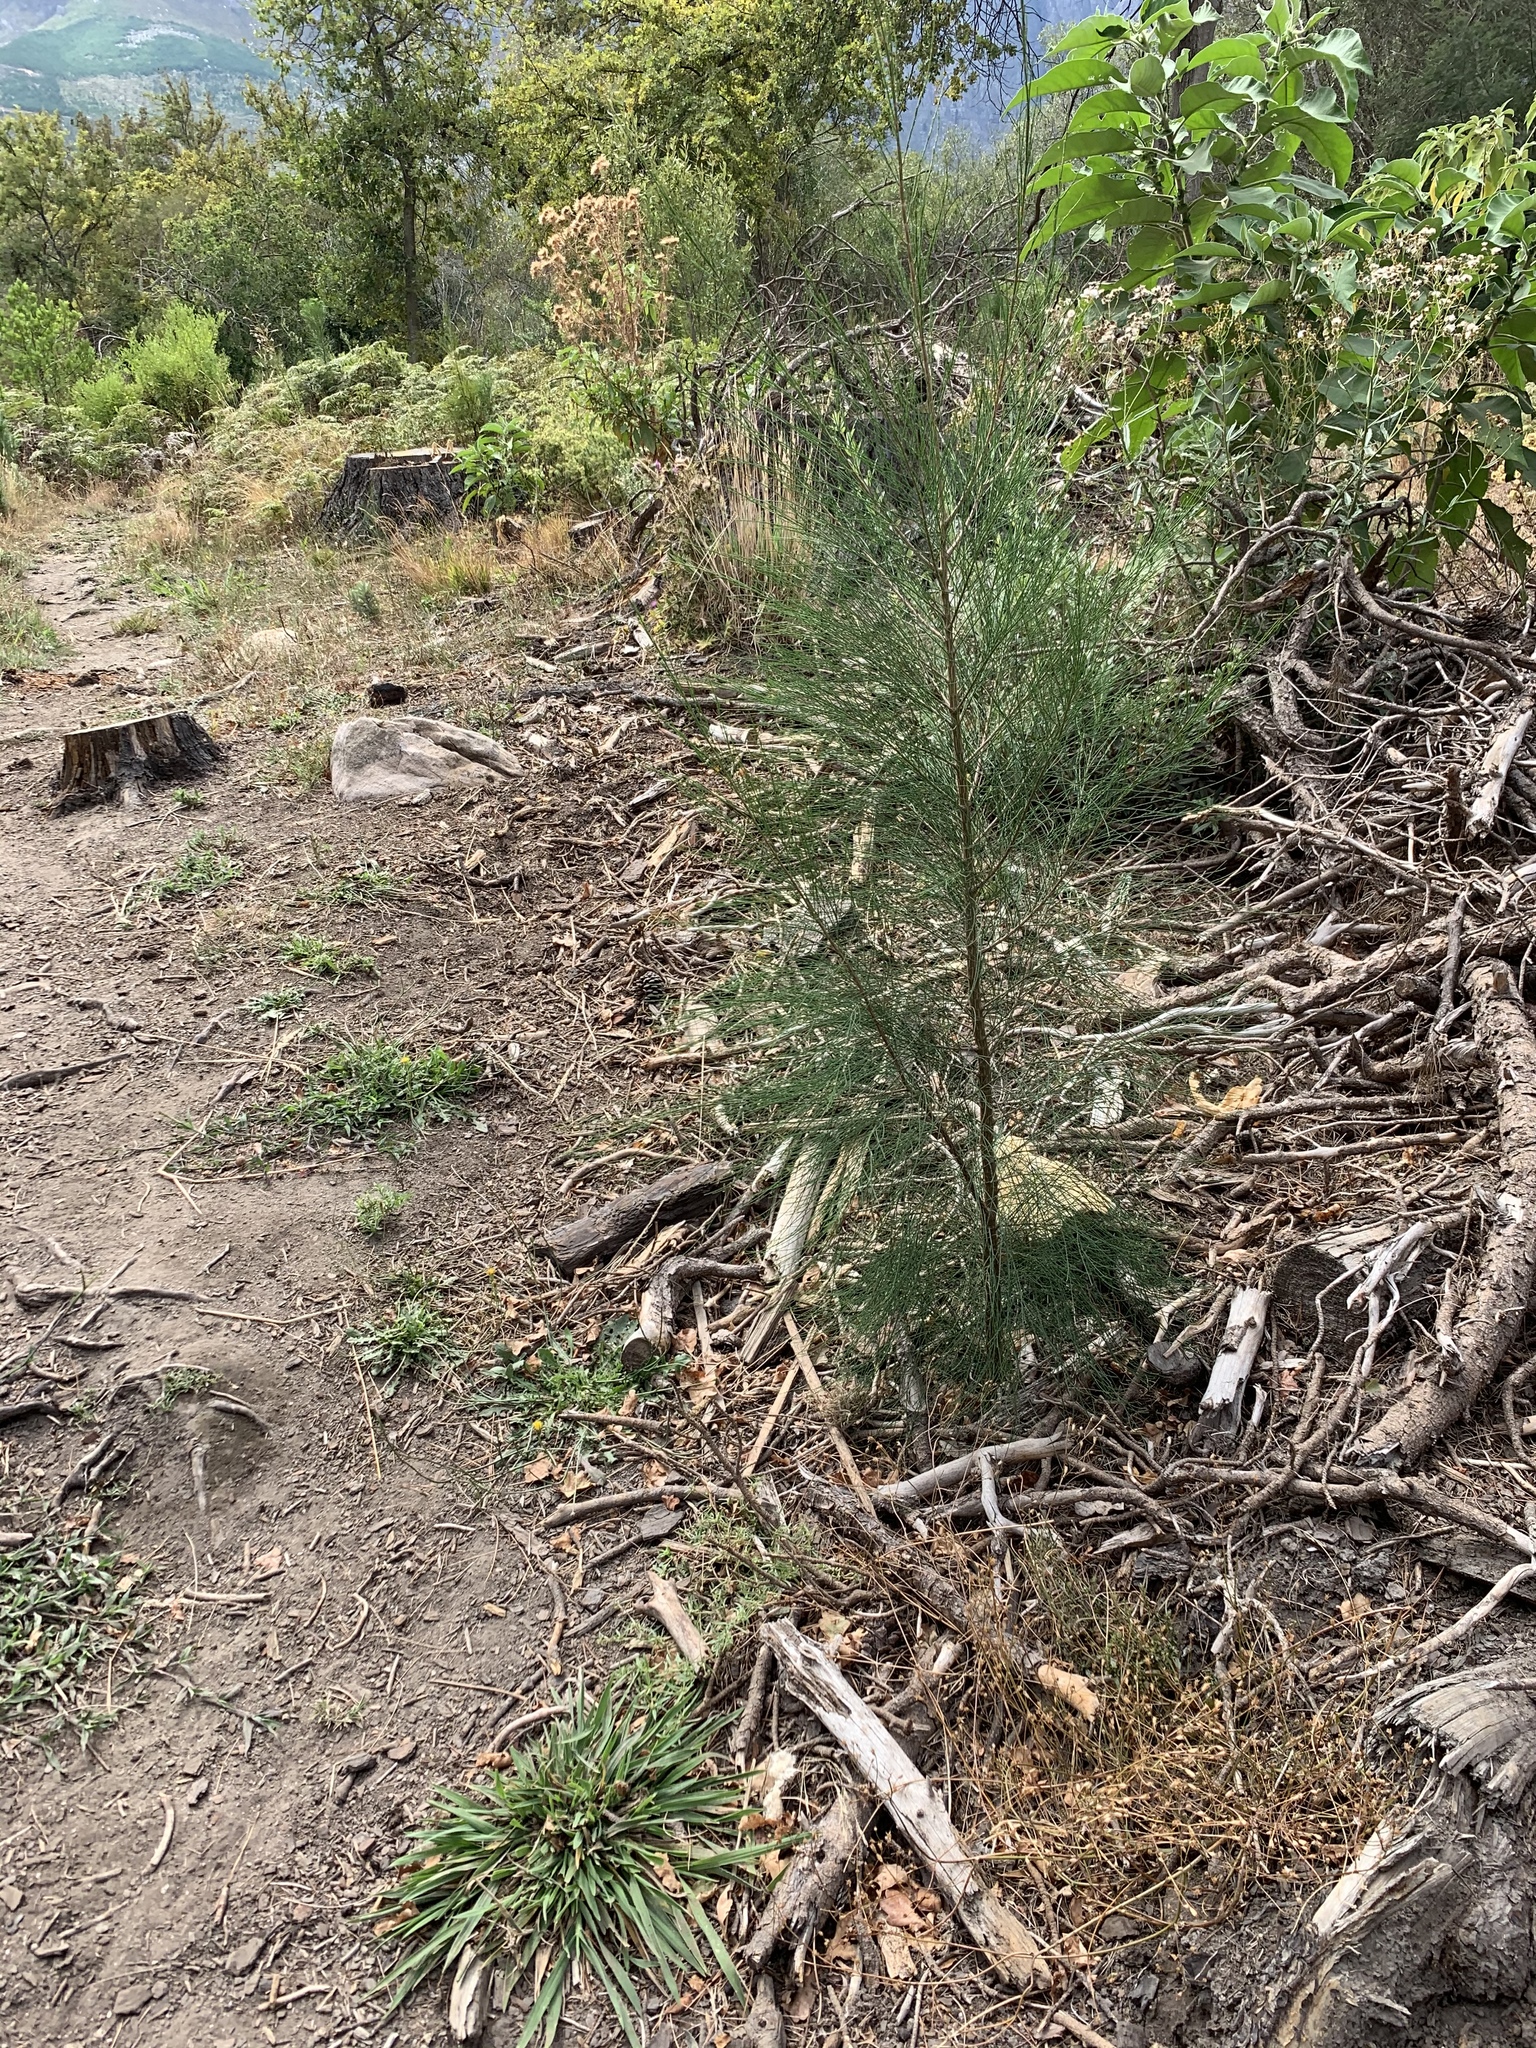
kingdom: Plantae
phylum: Tracheophyta
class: Magnoliopsida
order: Fagales
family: Casuarinaceae
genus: Casuarina
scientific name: Casuarina cunninghamiana
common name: River sheoak
